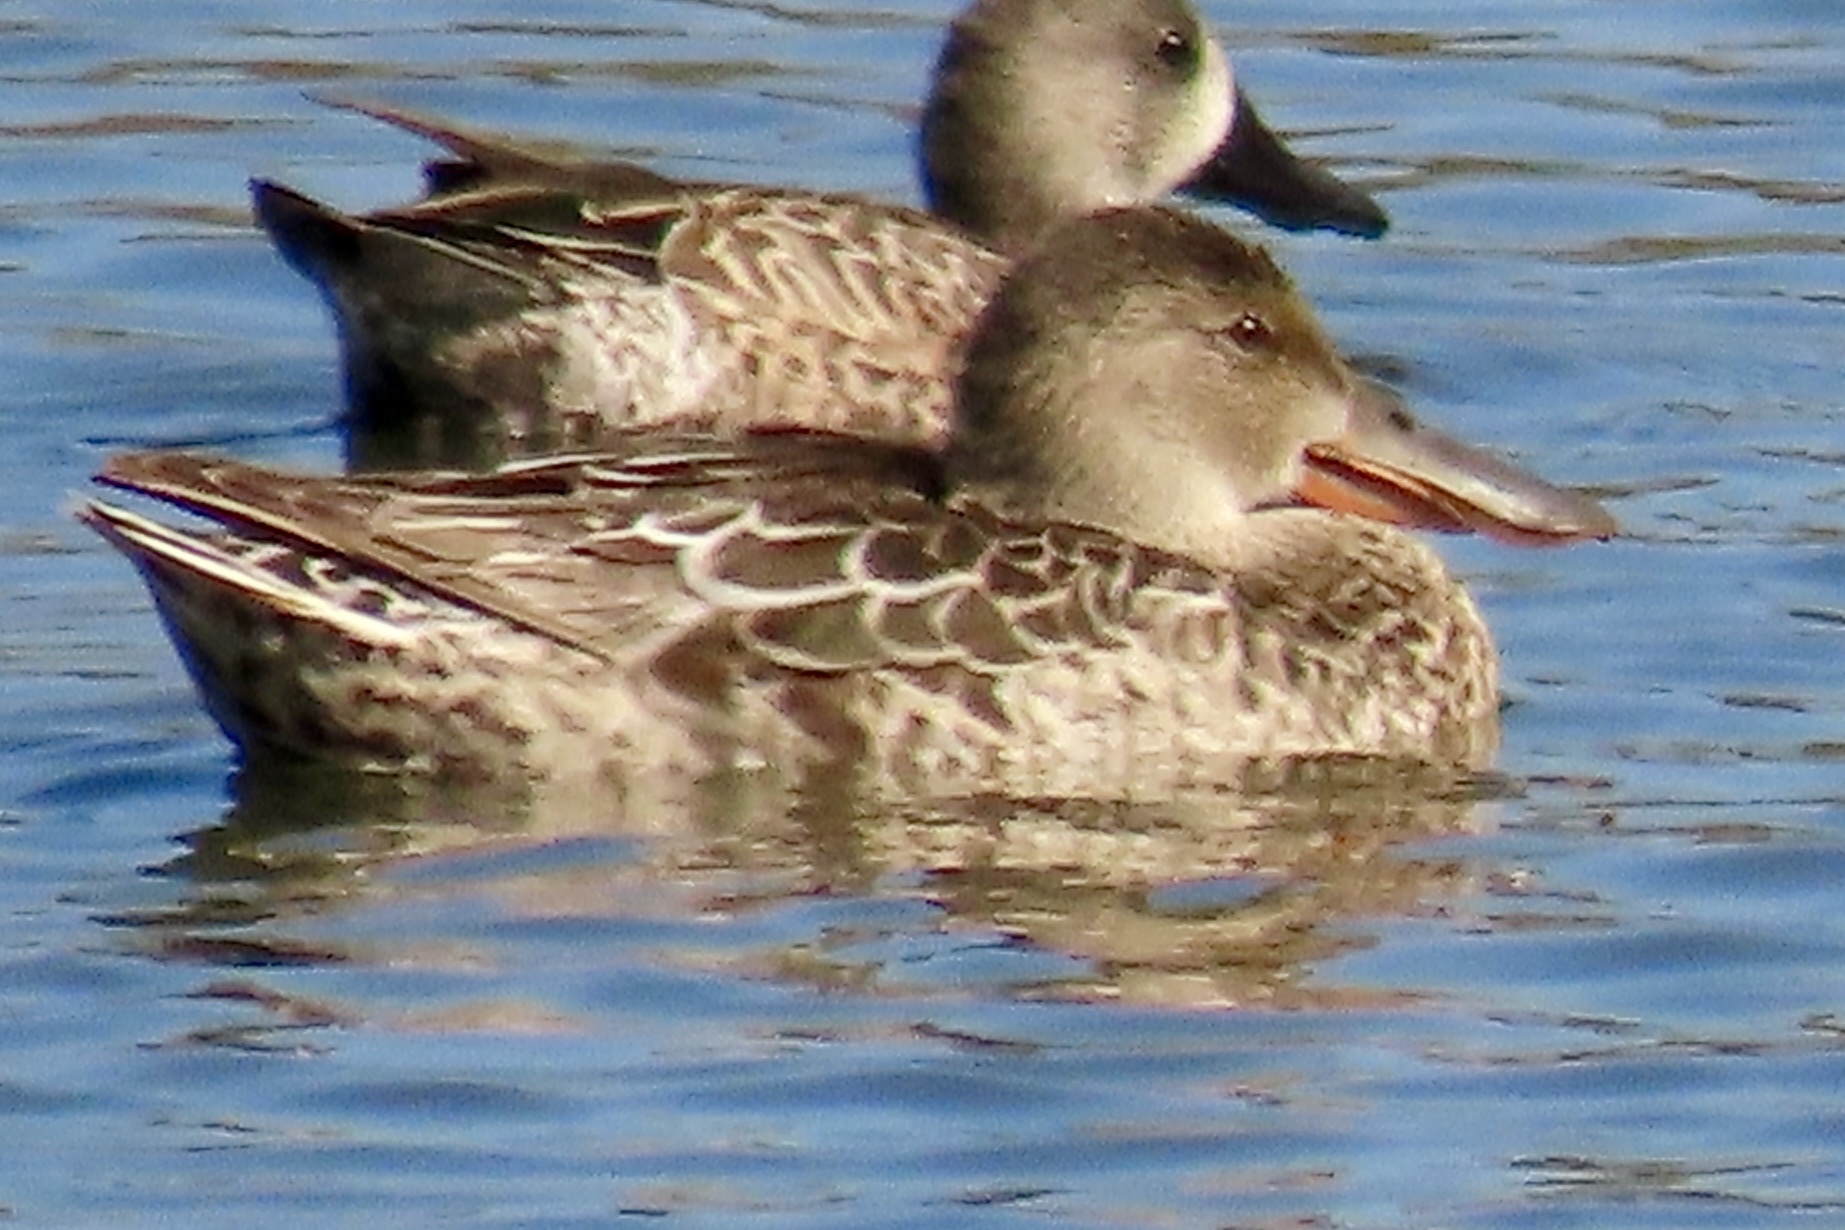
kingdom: Animalia
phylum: Chordata
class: Aves
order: Anseriformes
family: Anatidae
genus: Spatula
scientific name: Spatula clypeata
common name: Northern shoveler
